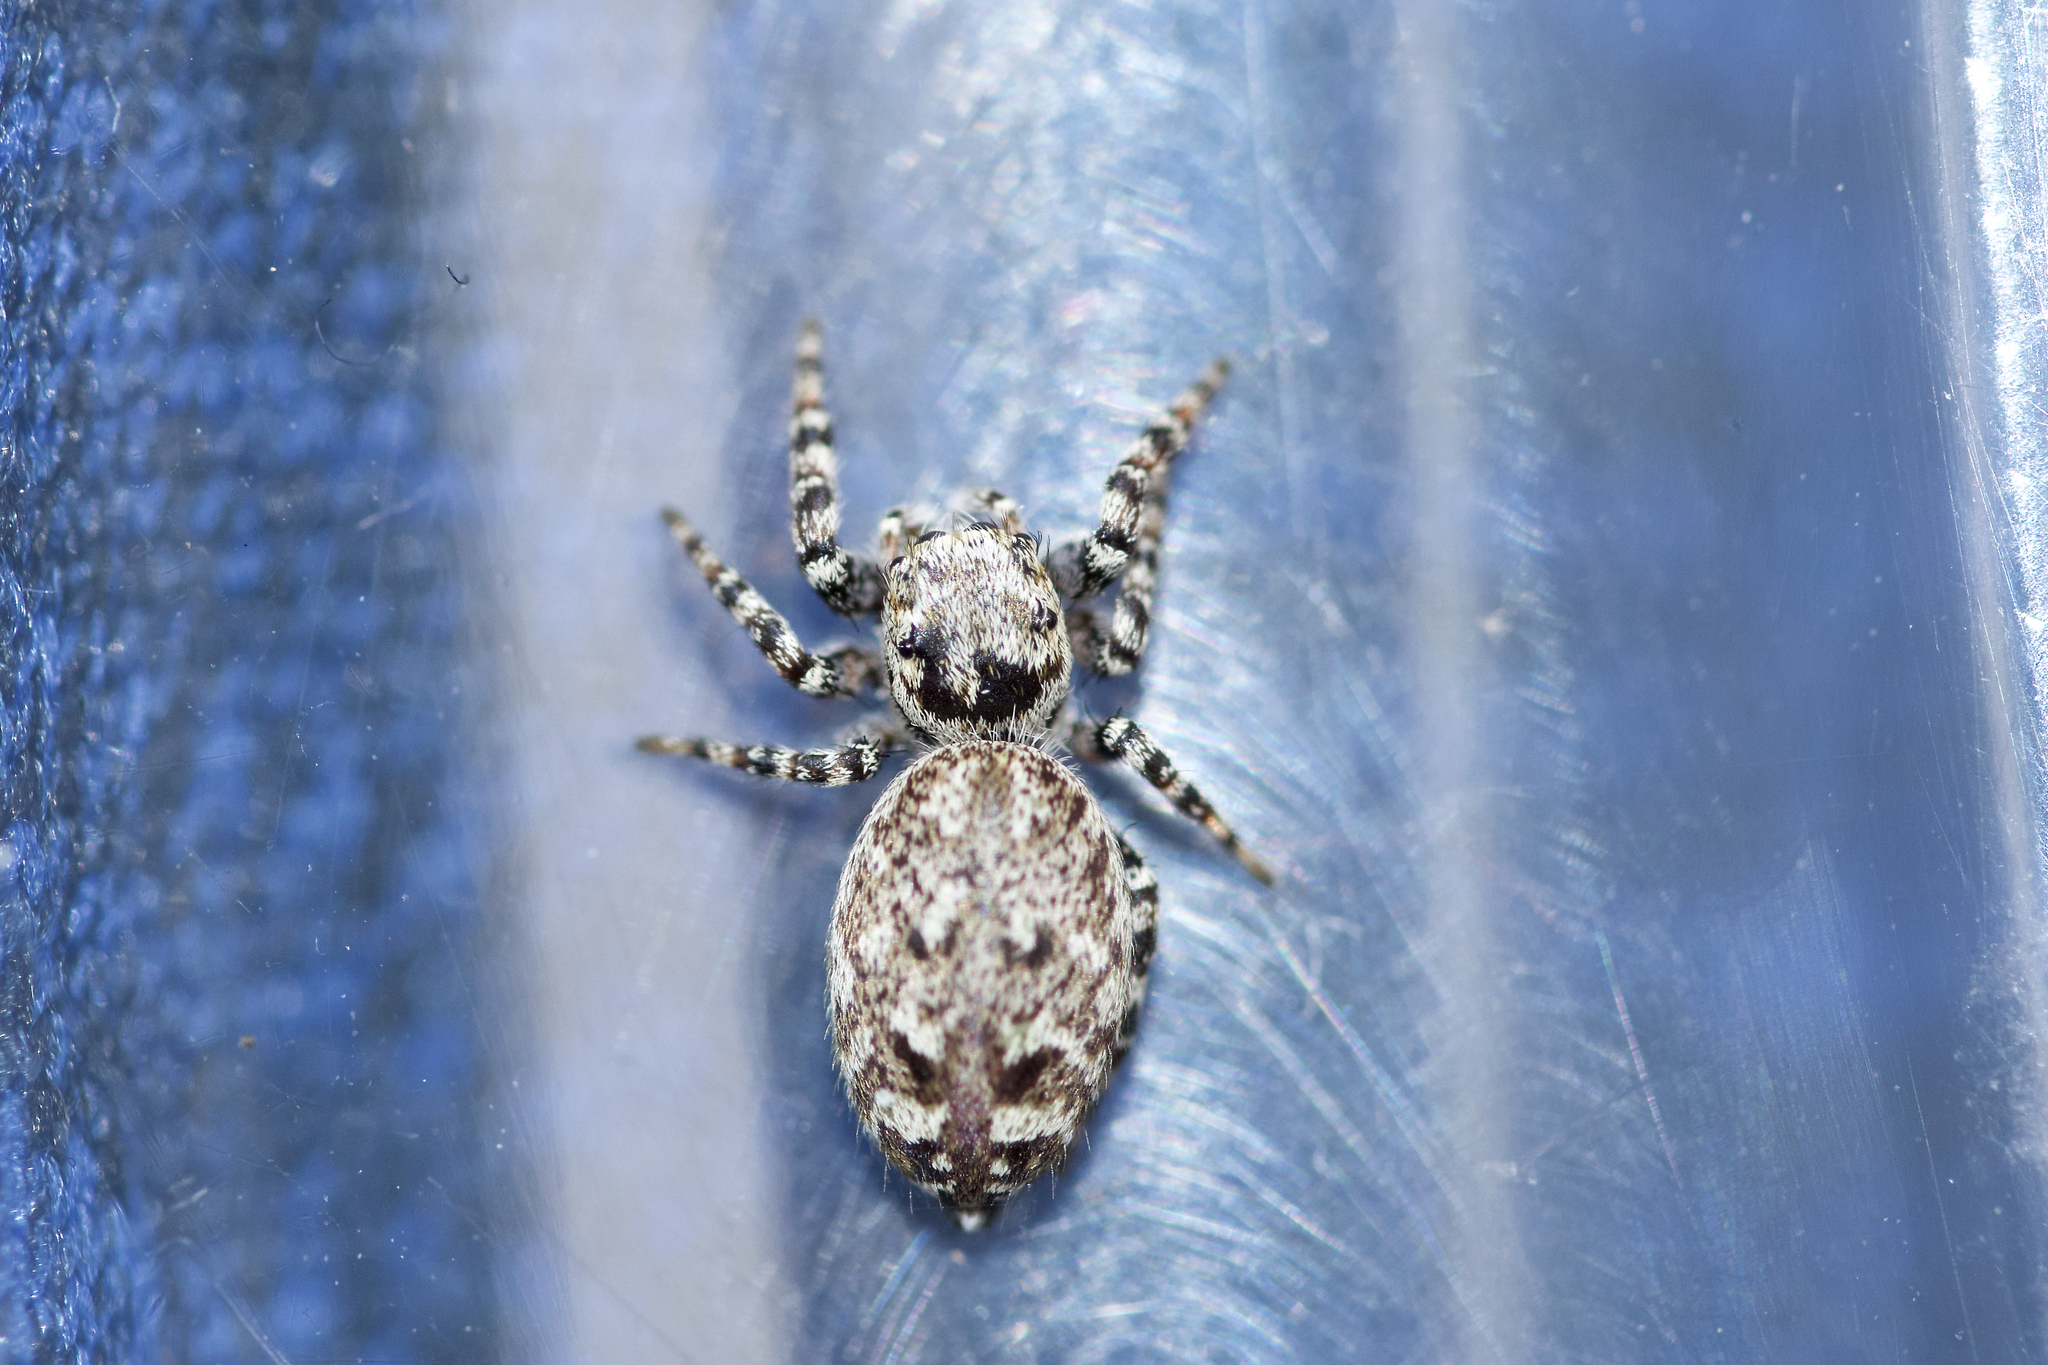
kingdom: Animalia
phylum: Arthropoda
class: Arachnida
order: Araneae
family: Salticidae
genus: Pelegrina
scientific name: Pelegrina galathea
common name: Jumping spiders
